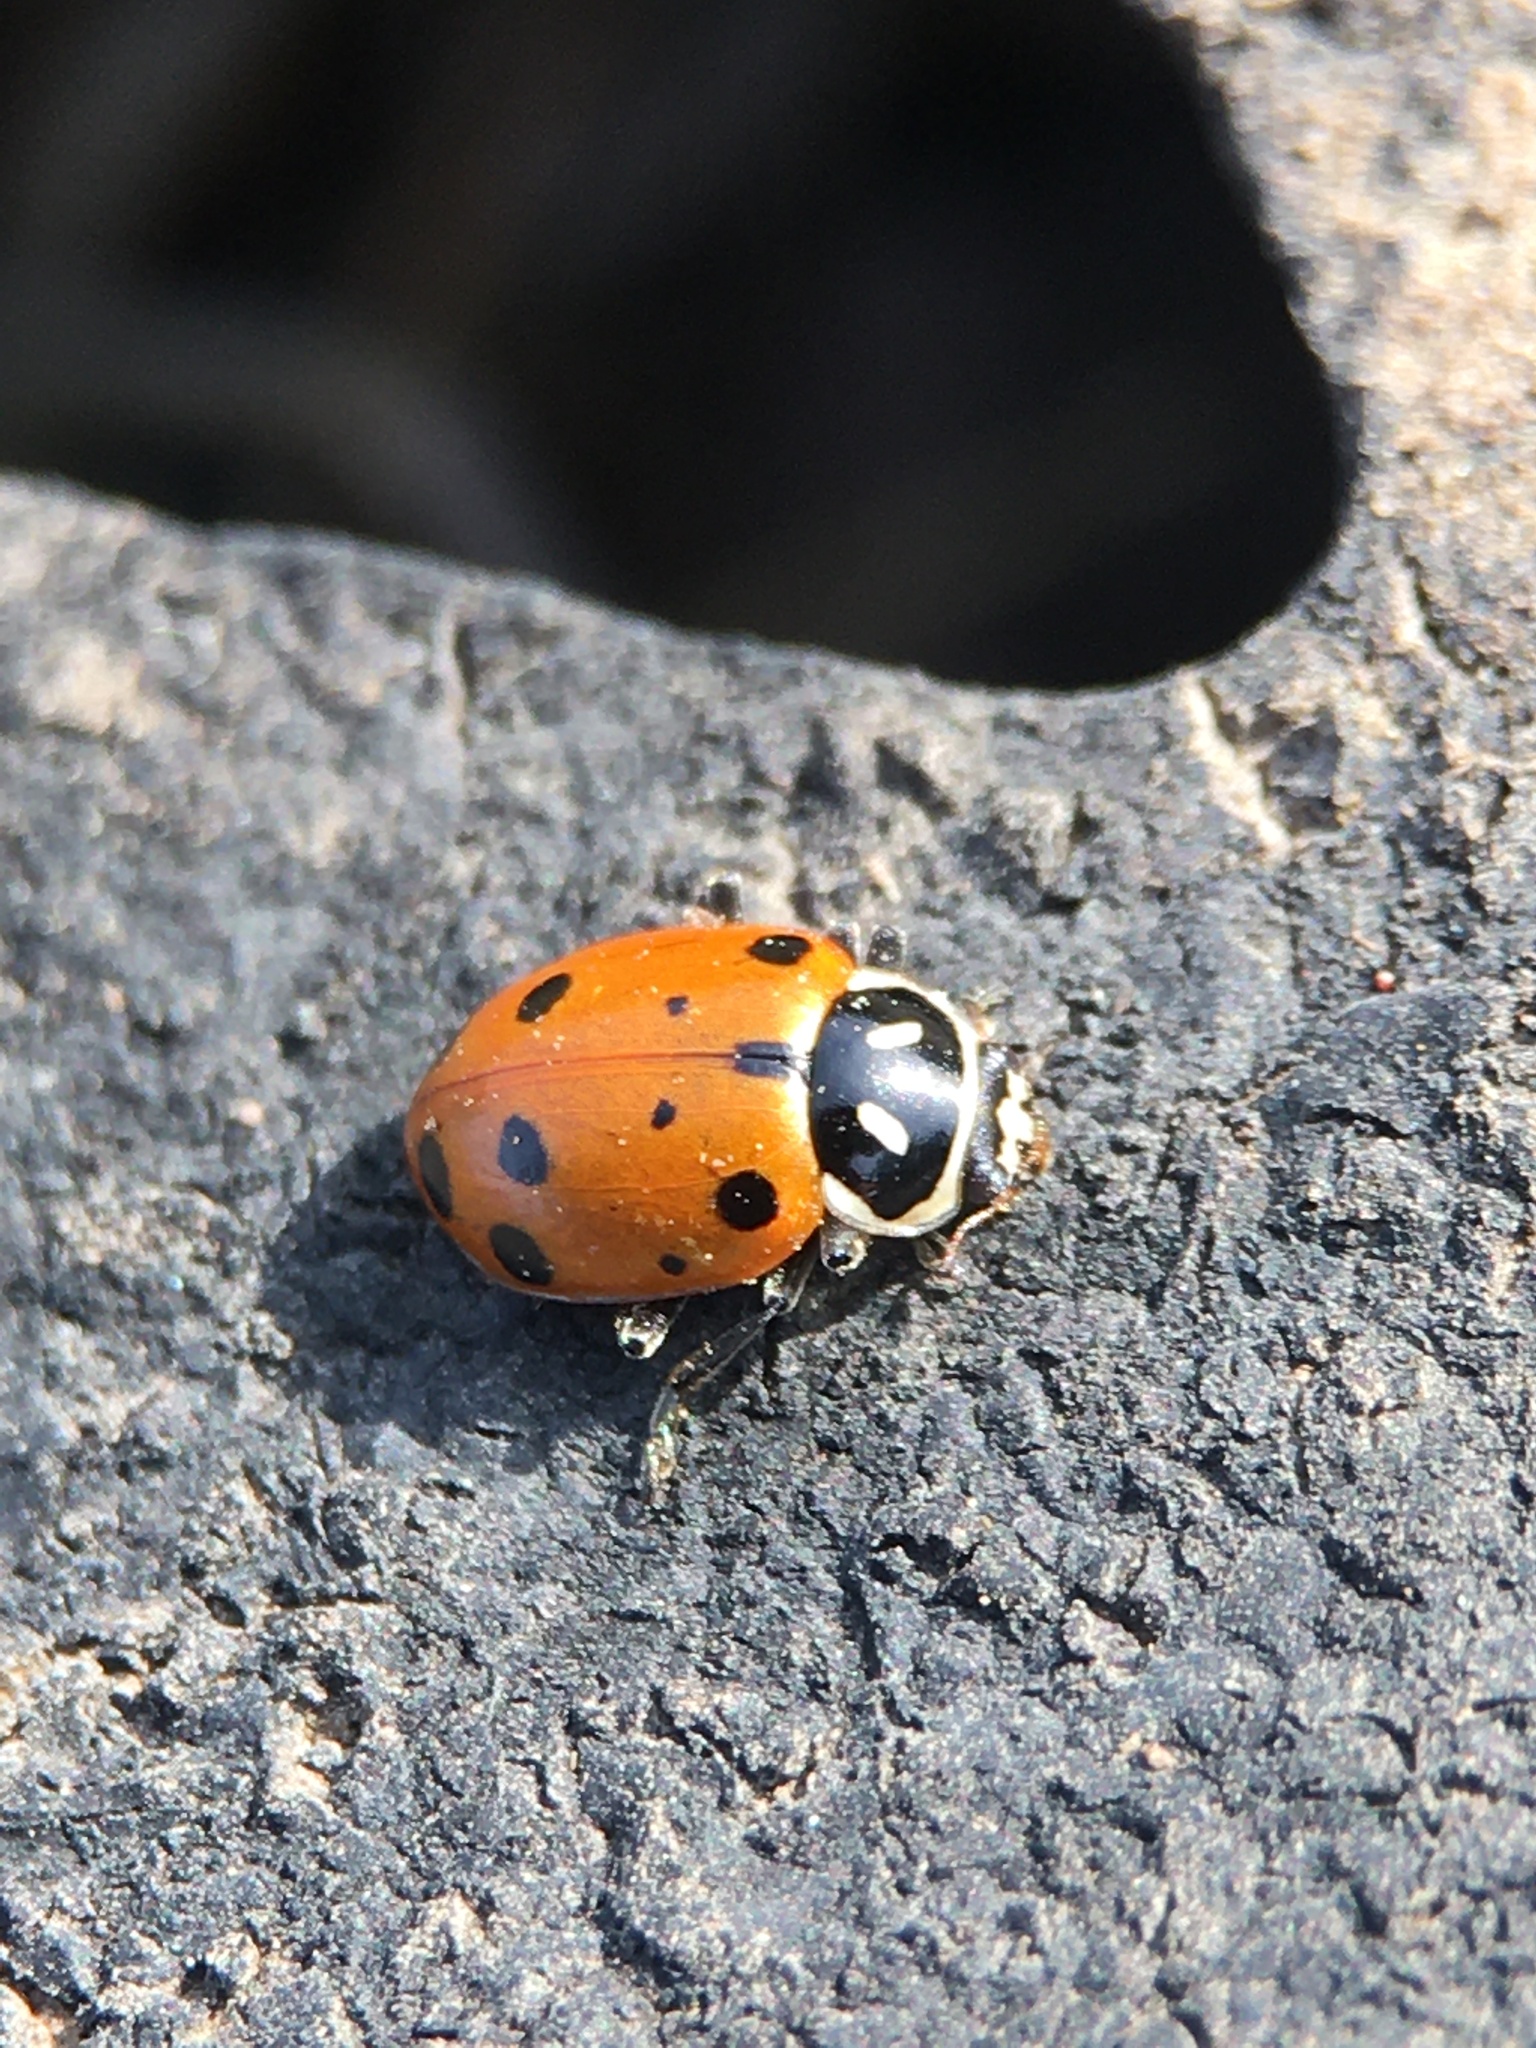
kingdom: Animalia
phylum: Arthropoda
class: Insecta
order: Coleoptera
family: Coccinellidae
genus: Hippodamia
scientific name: Hippodamia convergens
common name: Convergent lady beetle
